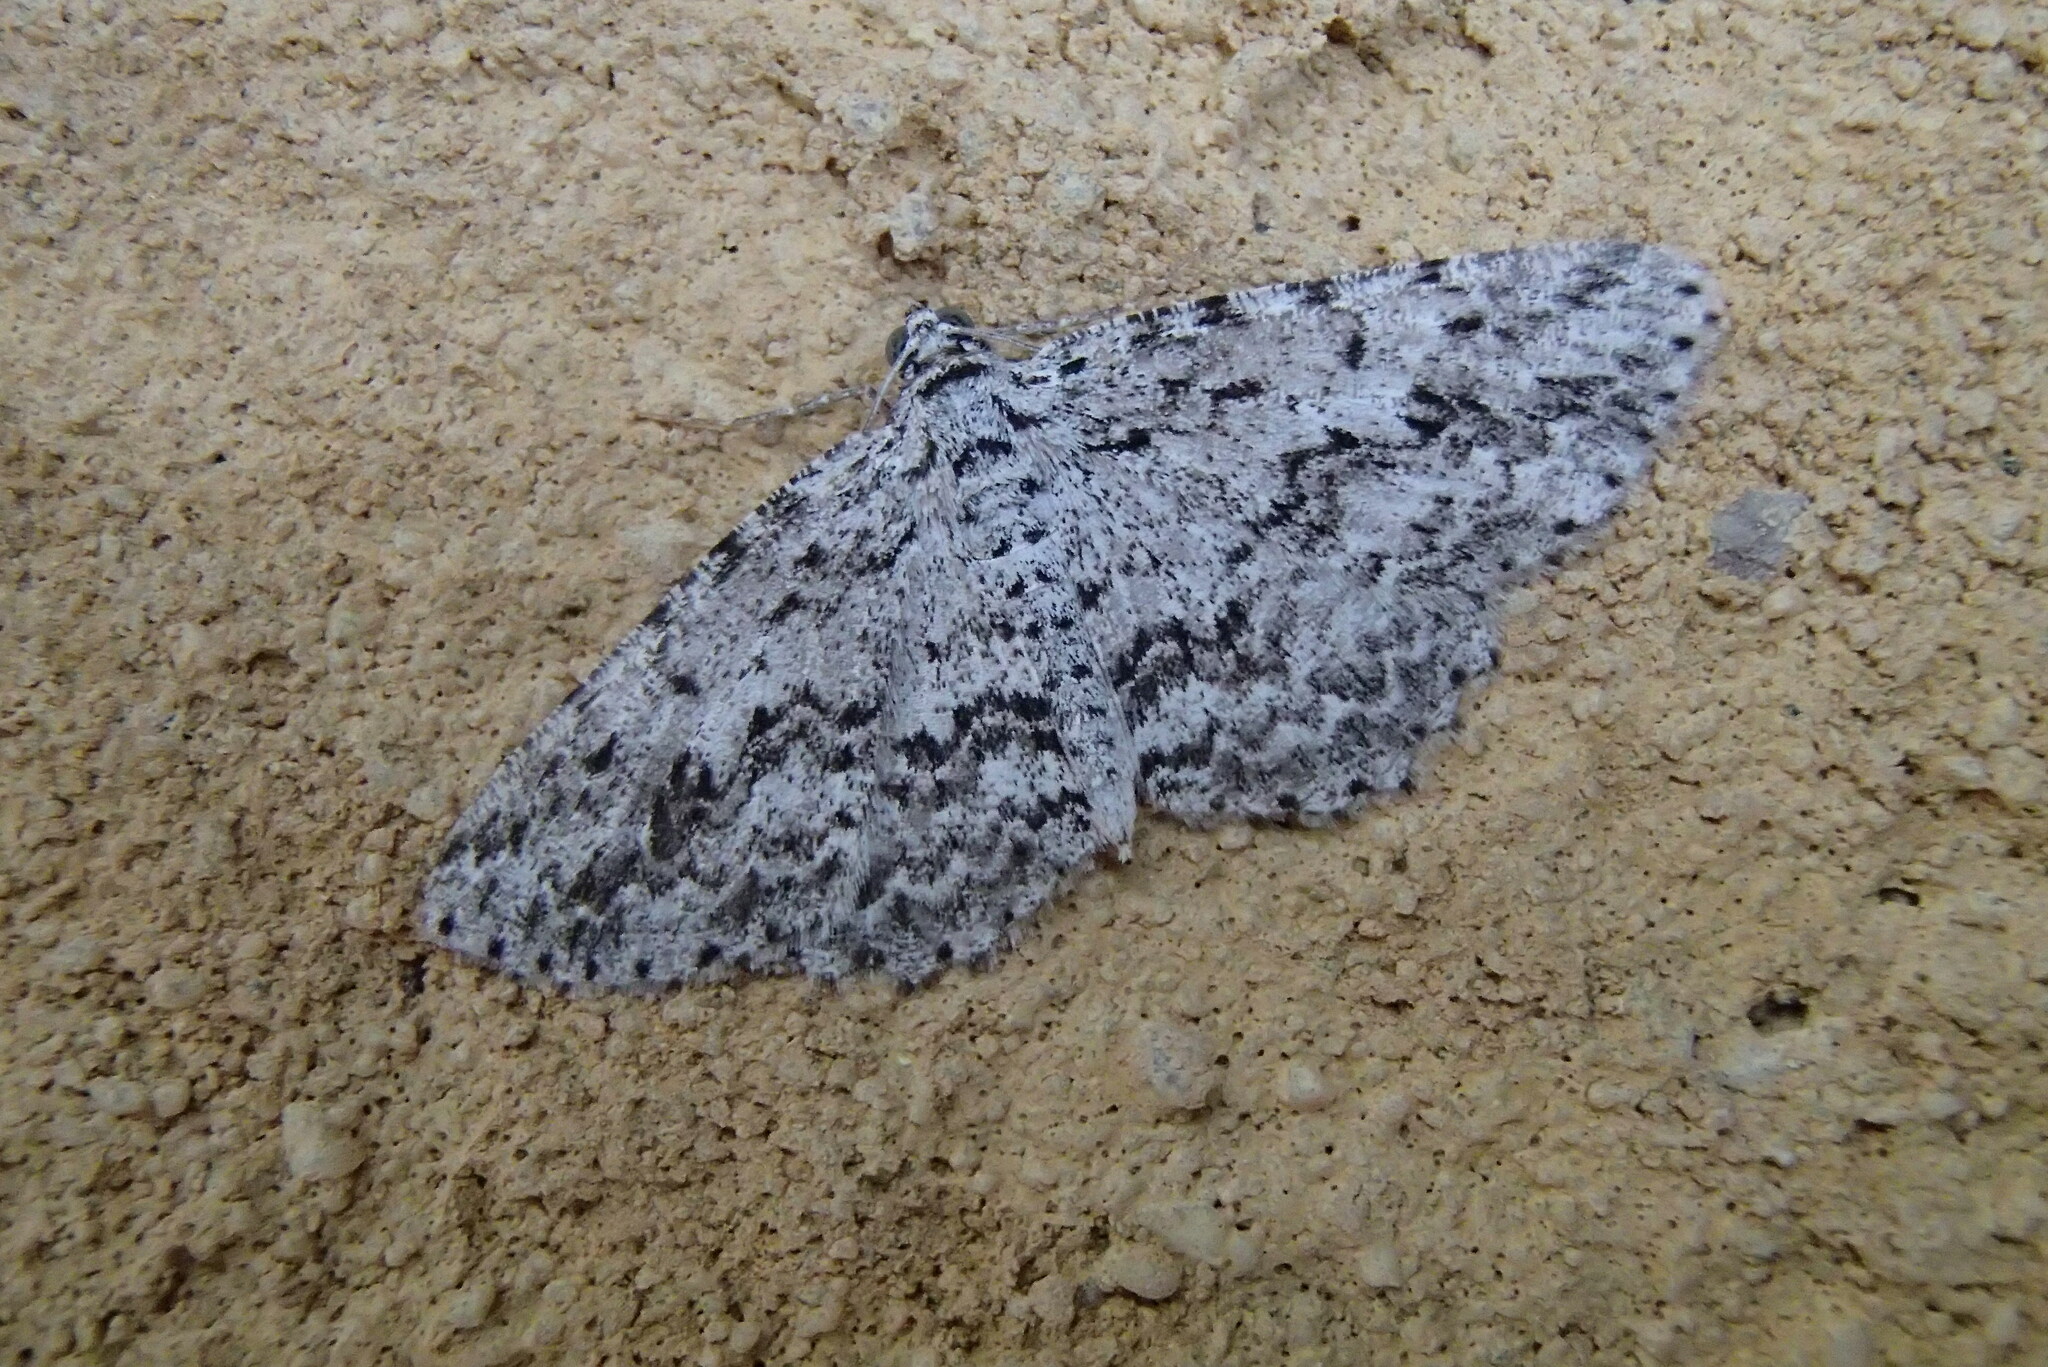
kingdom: Animalia
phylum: Arthropoda
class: Insecta
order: Lepidoptera
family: Geometridae
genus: Psilosticha
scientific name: Psilosticha mactaria
